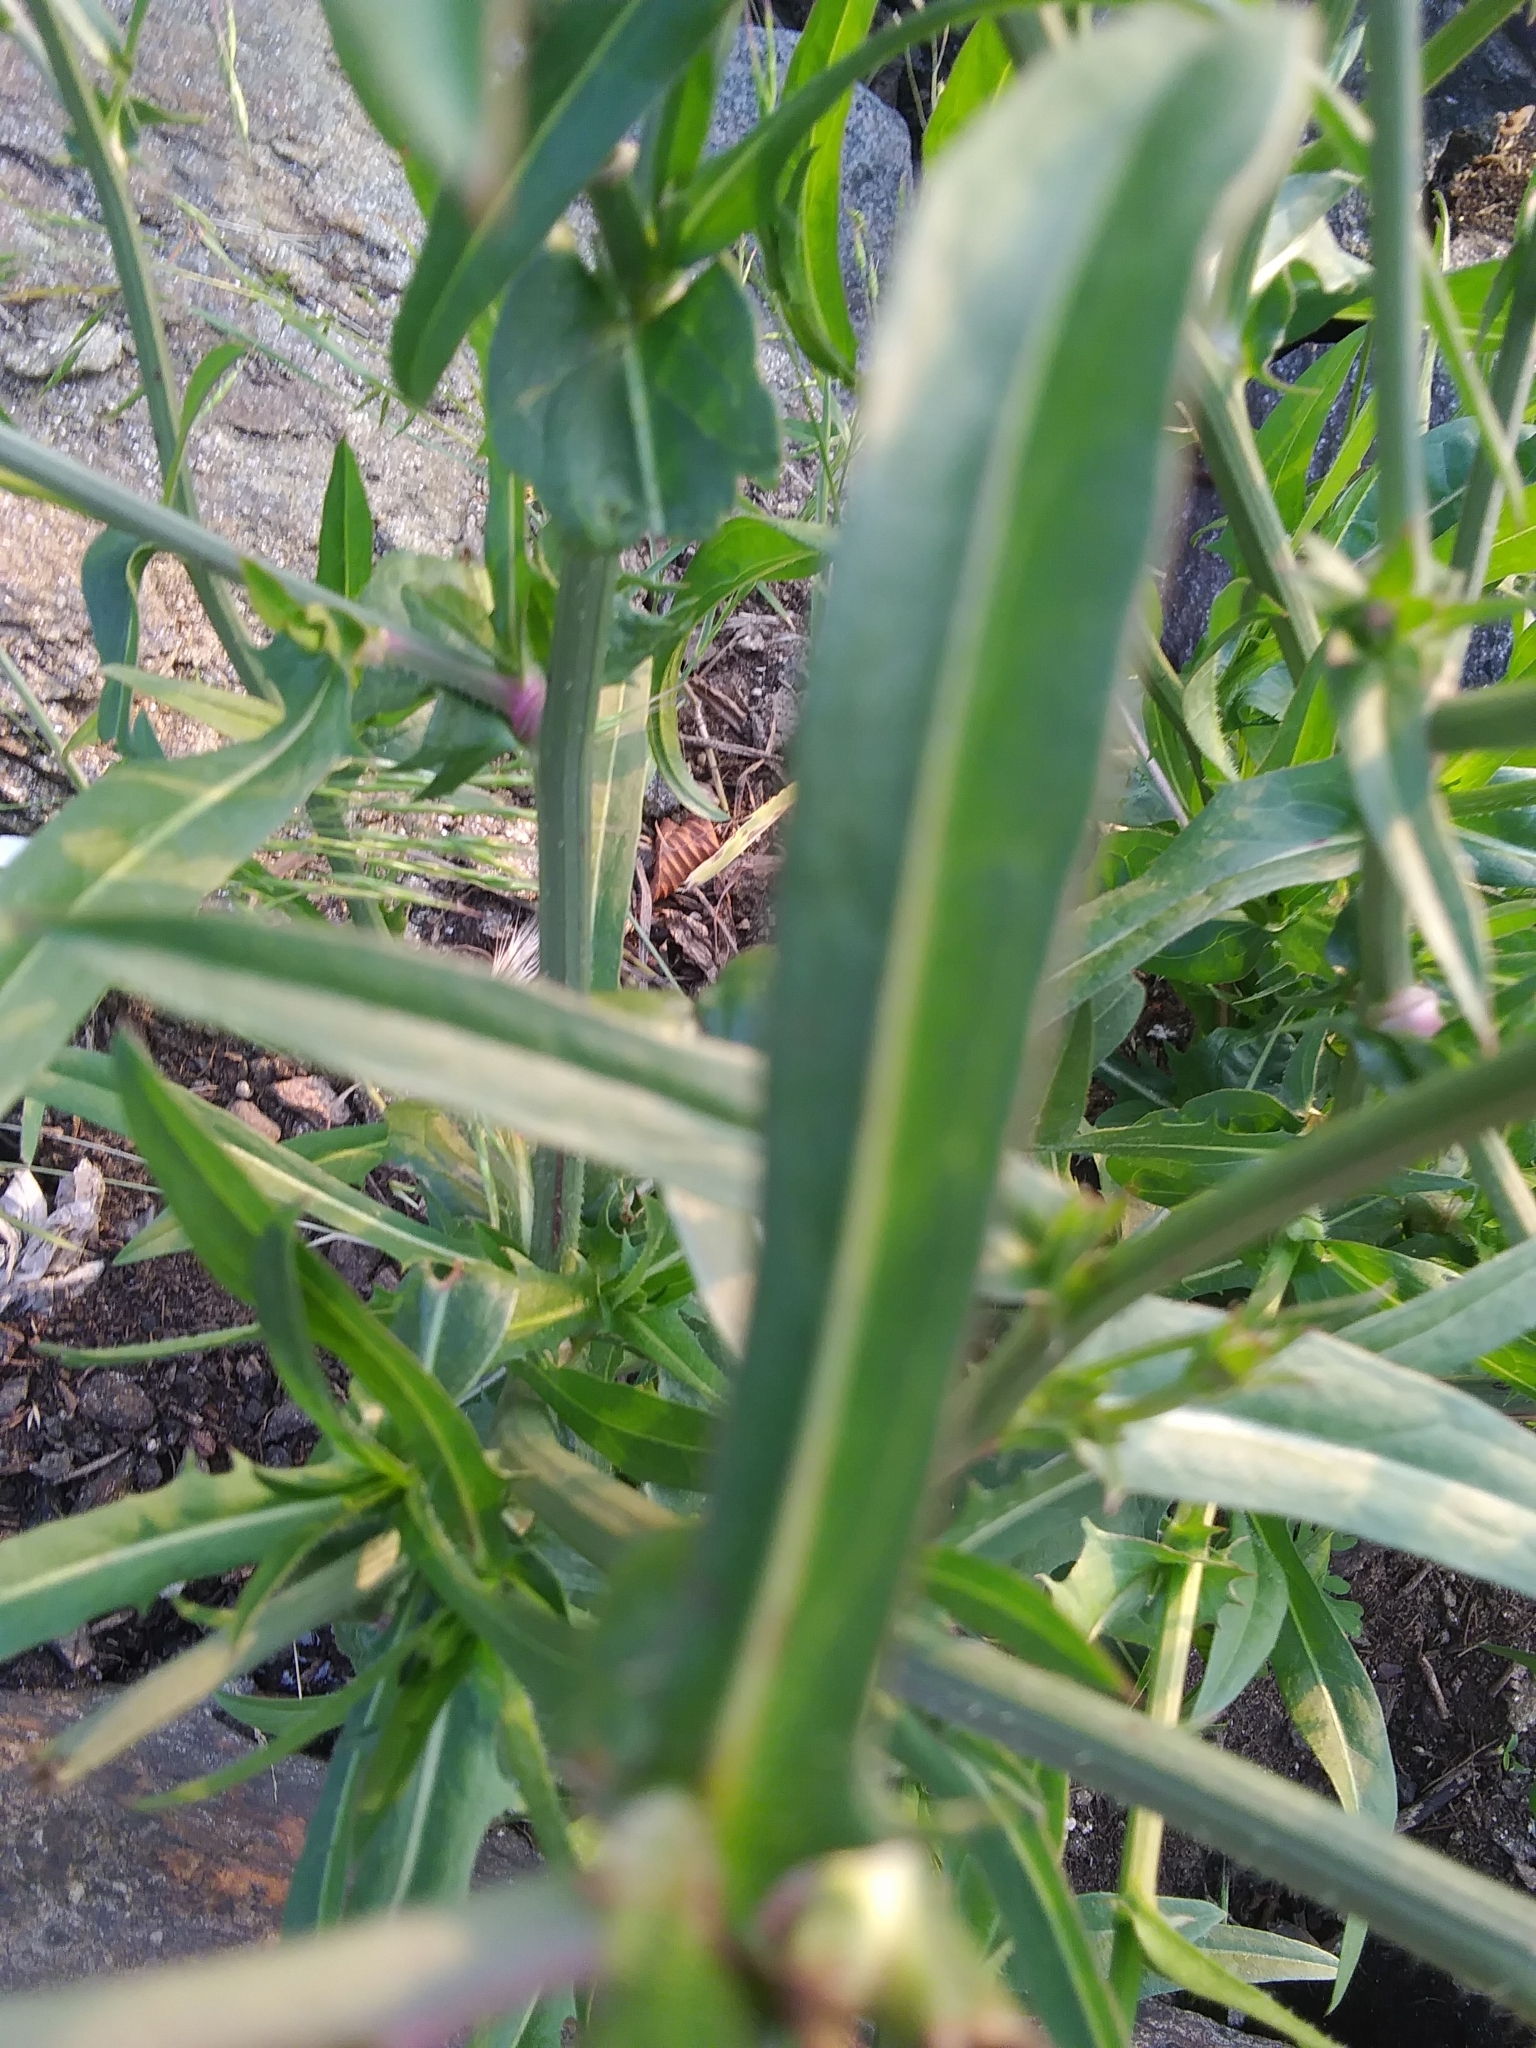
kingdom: Plantae
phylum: Tracheophyta
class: Magnoliopsida
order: Asterales
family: Asteraceae
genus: Cichorium
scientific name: Cichorium intybus
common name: Chicory
